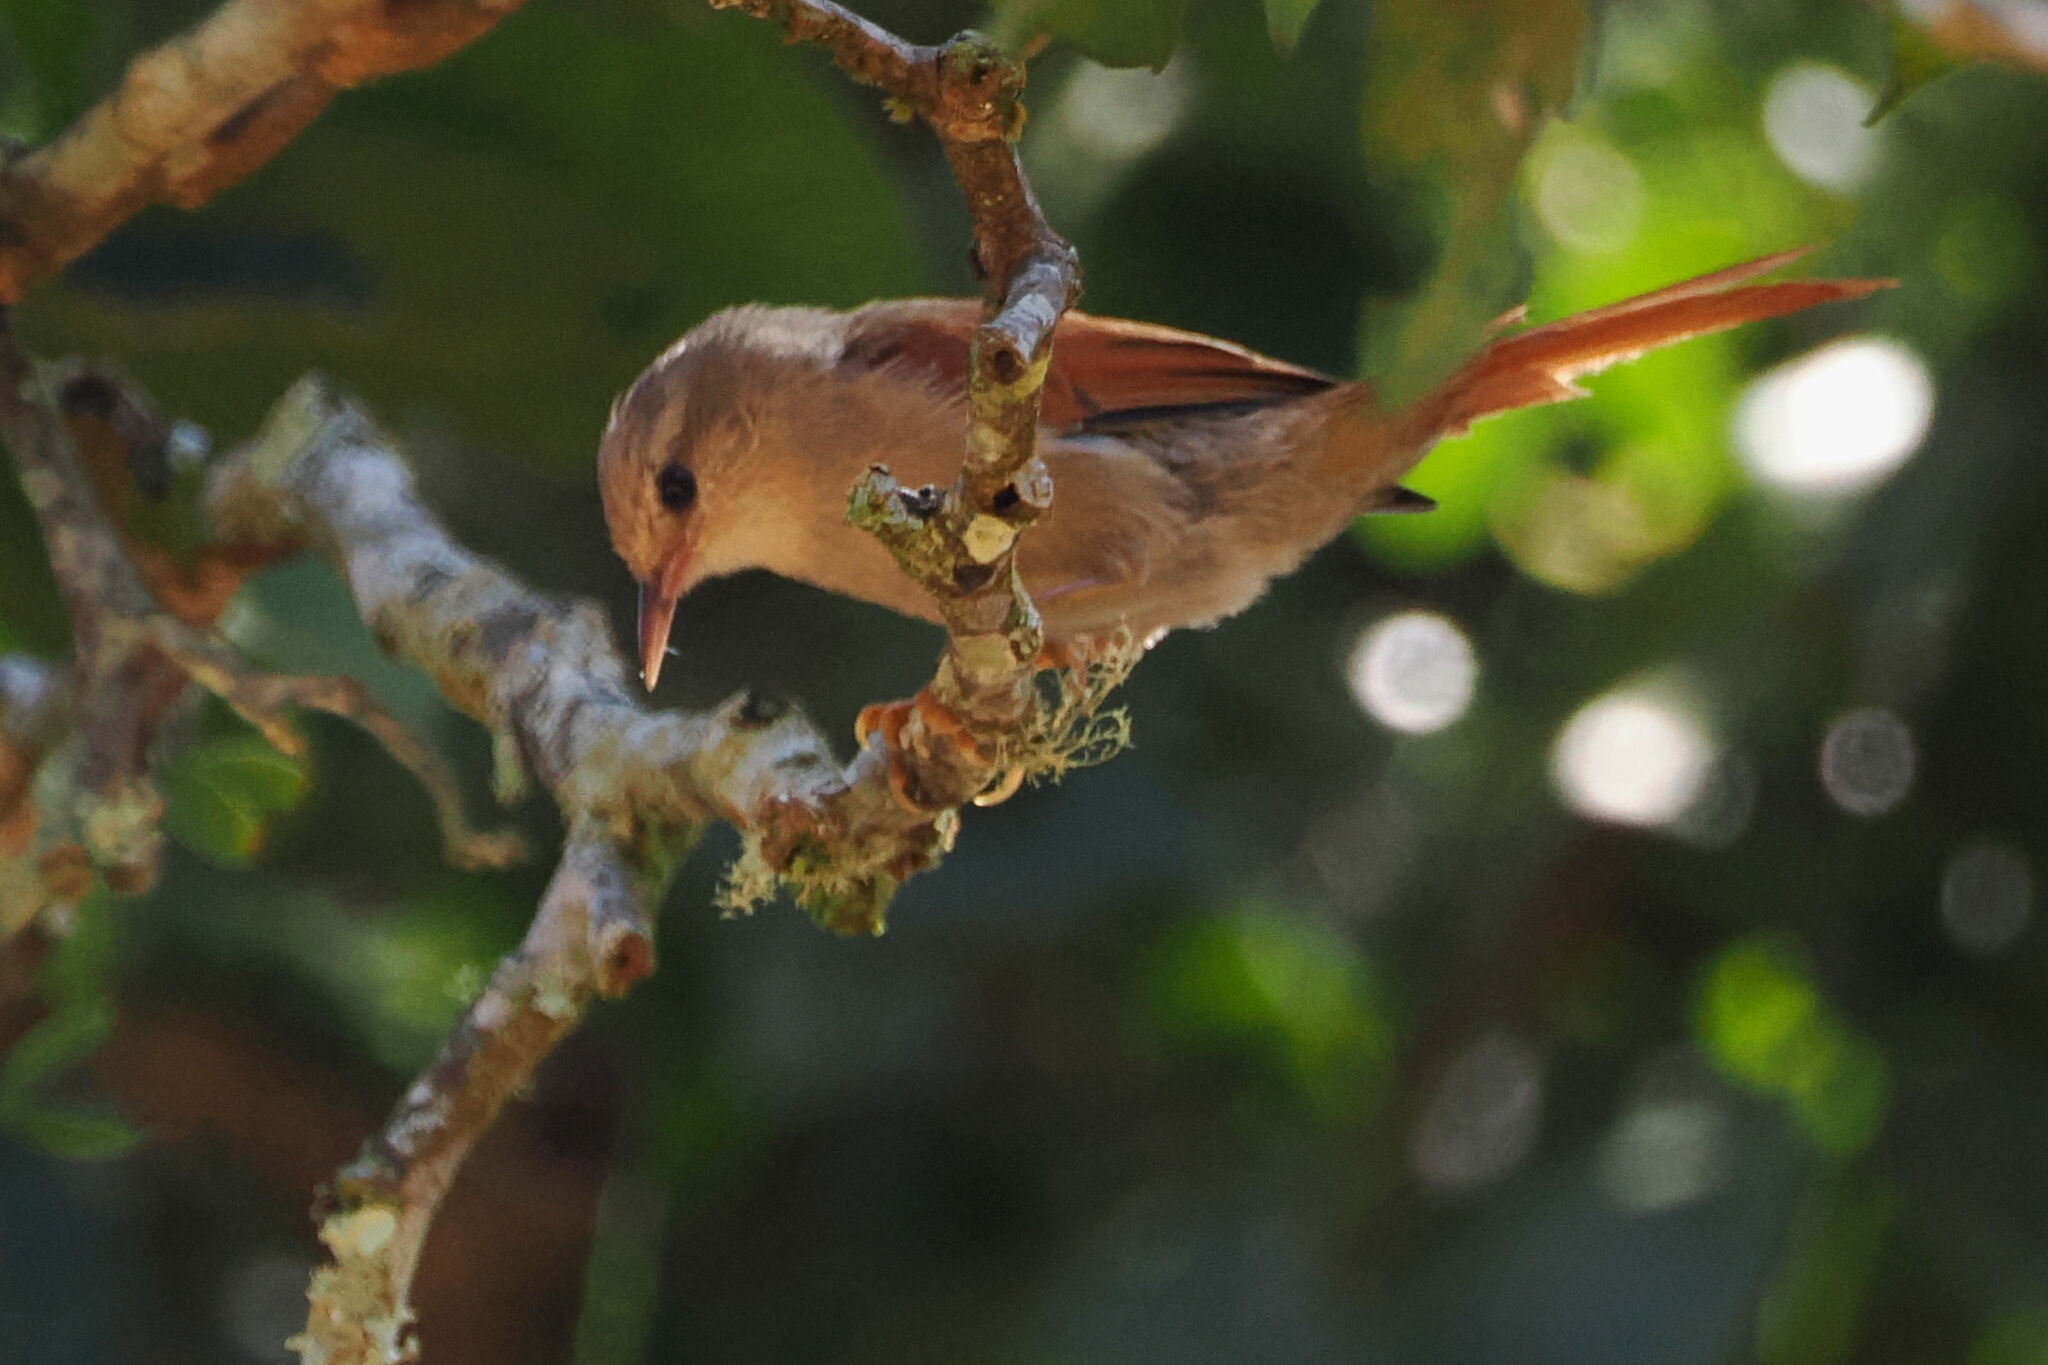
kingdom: Animalia
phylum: Chordata
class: Aves
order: Passeriformes
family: Furnariidae
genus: Cranioleuca
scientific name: Cranioleuca semicinerea
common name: Grey-headed spinetail
